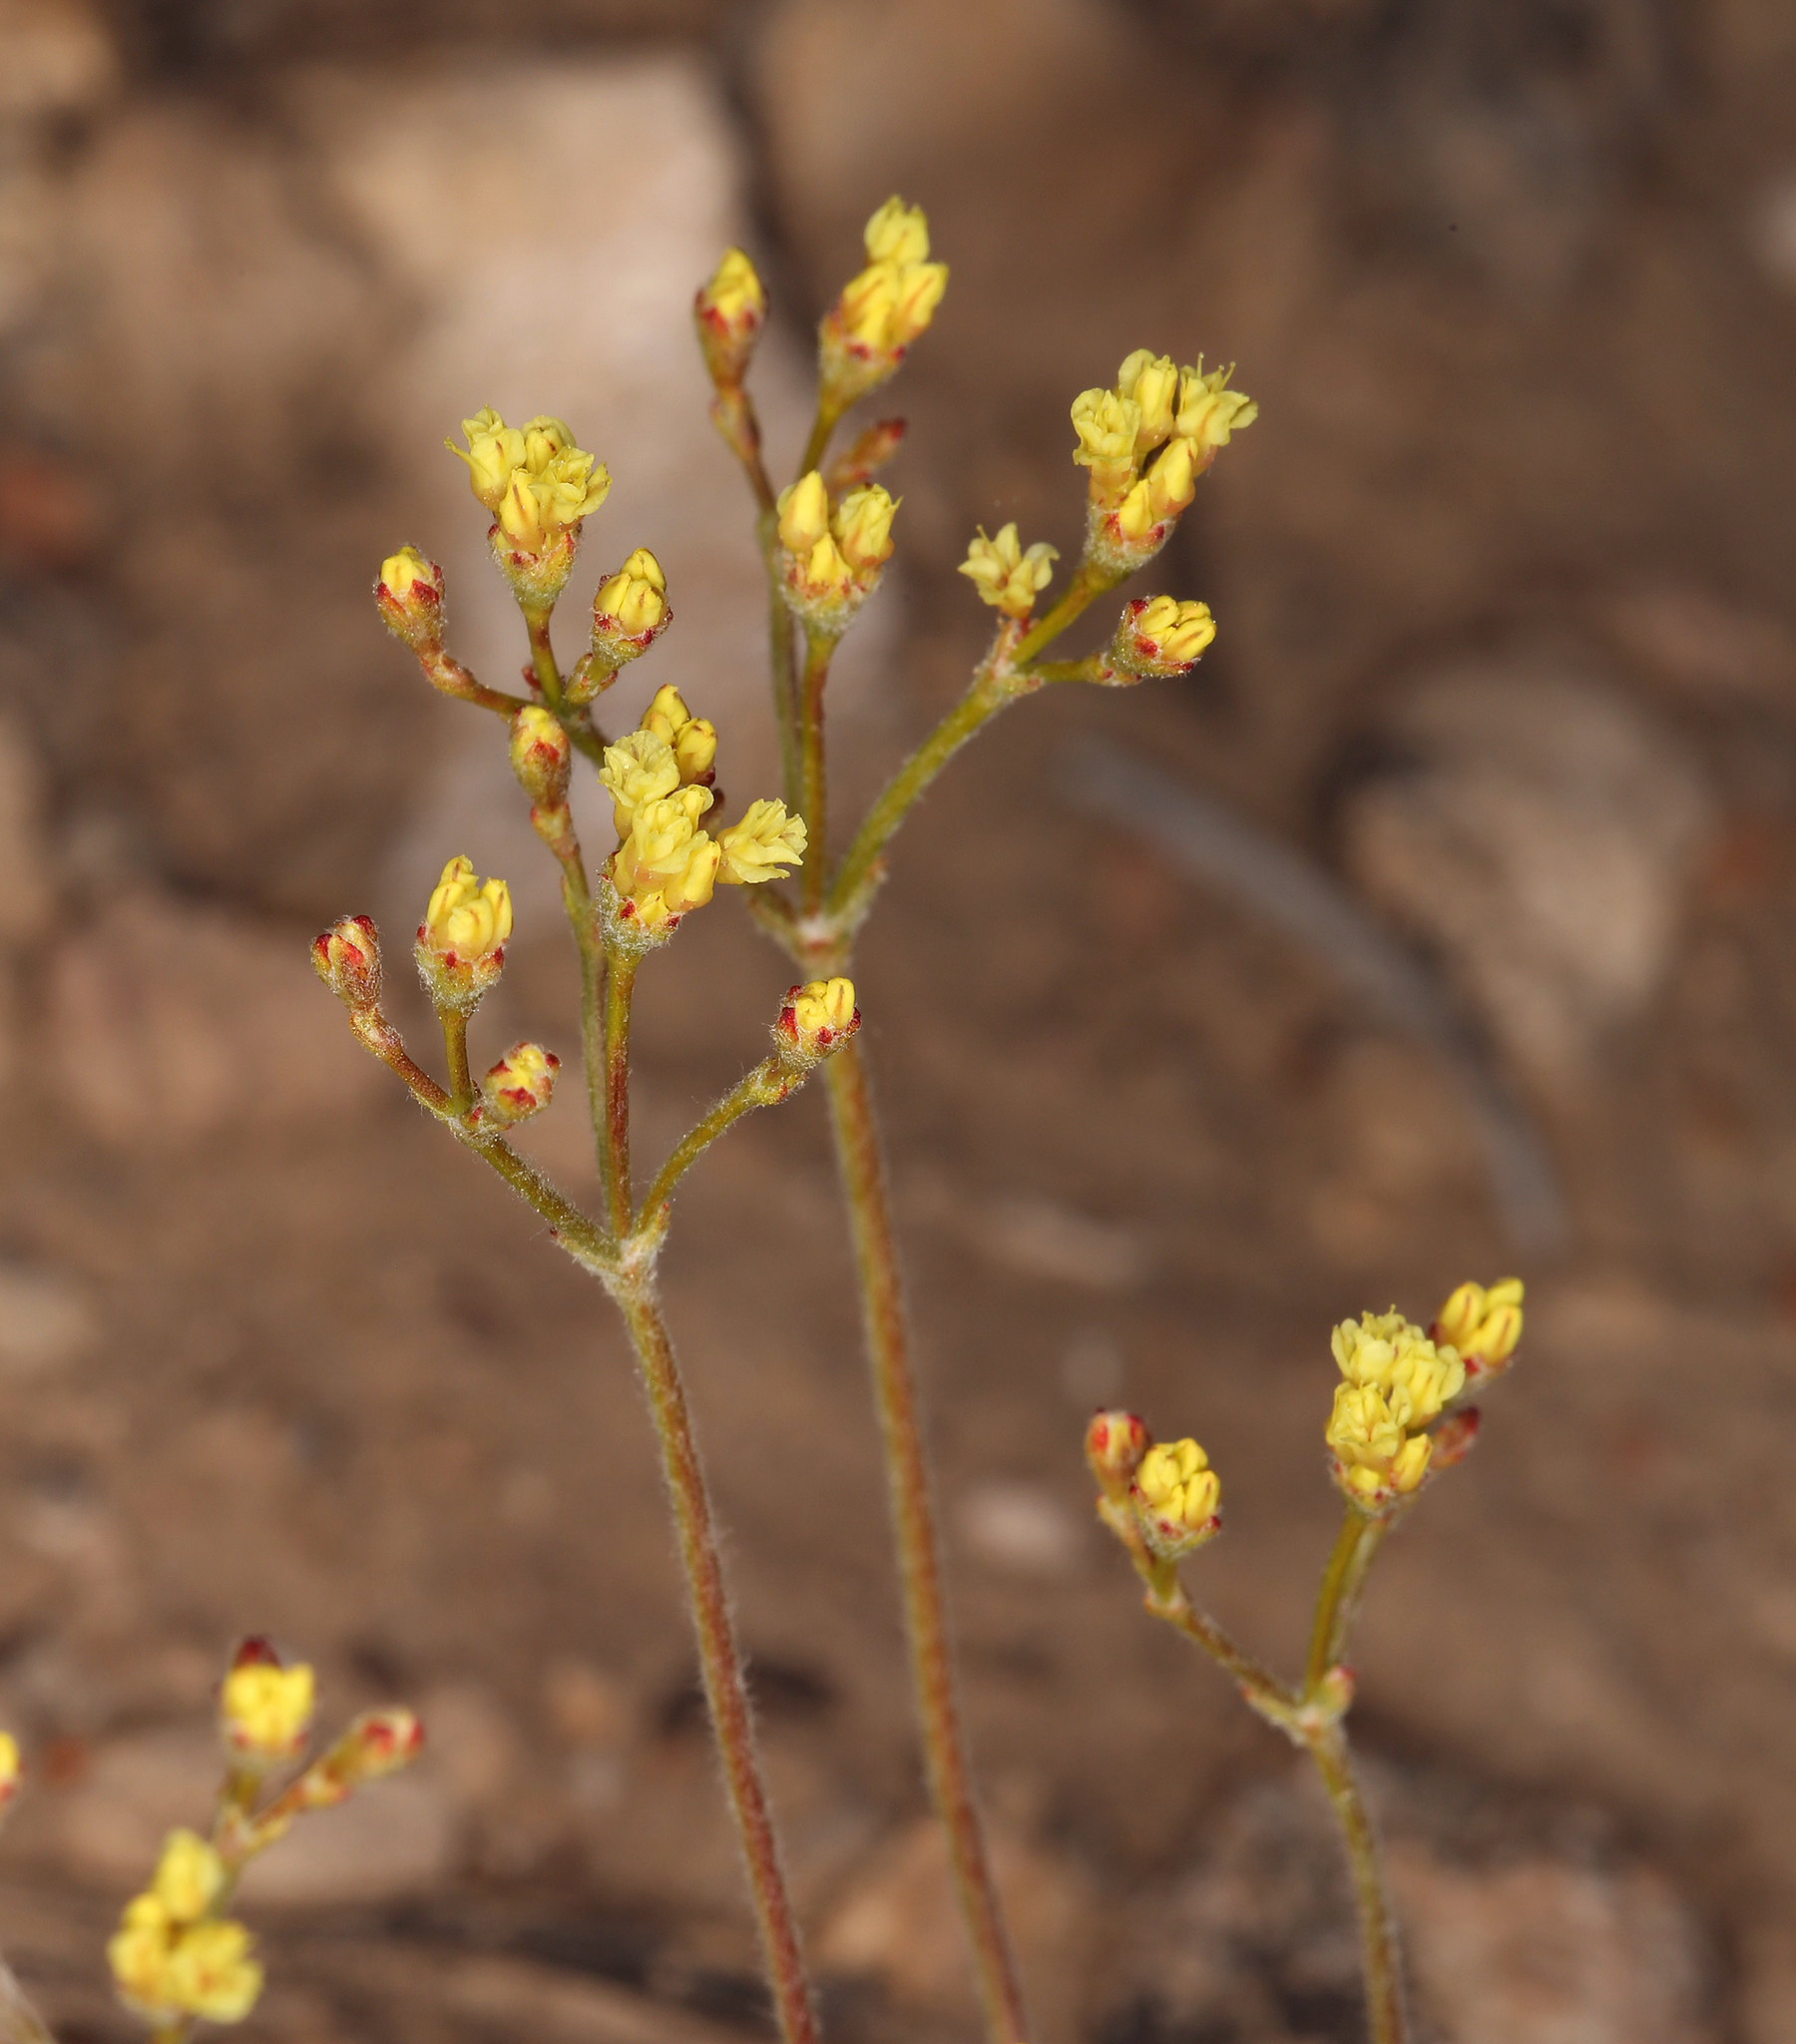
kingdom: Plantae
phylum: Tracheophyta
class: Magnoliopsida
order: Caryophyllales
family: Polygonaceae
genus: Eriogonum
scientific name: Eriogonum microtheca
